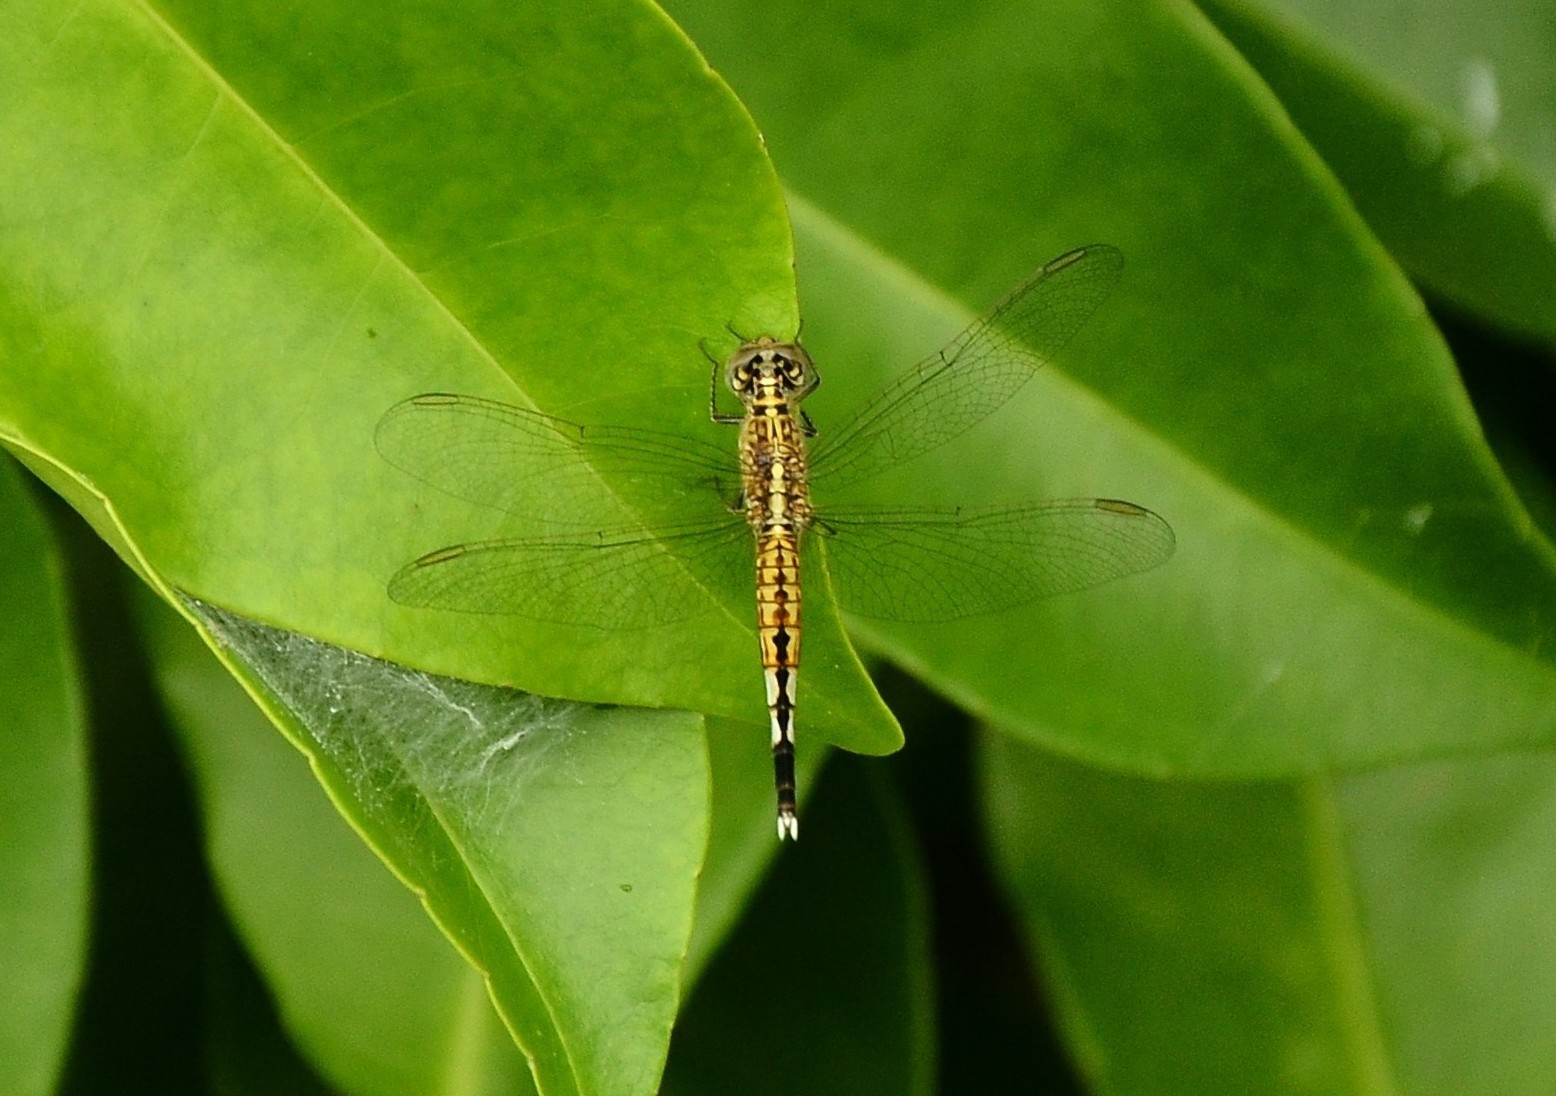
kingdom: Animalia
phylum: Arthropoda
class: Insecta
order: Odonata
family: Libellulidae
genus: Acisoma
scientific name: Acisoma panorpoides
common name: Asian pintail
